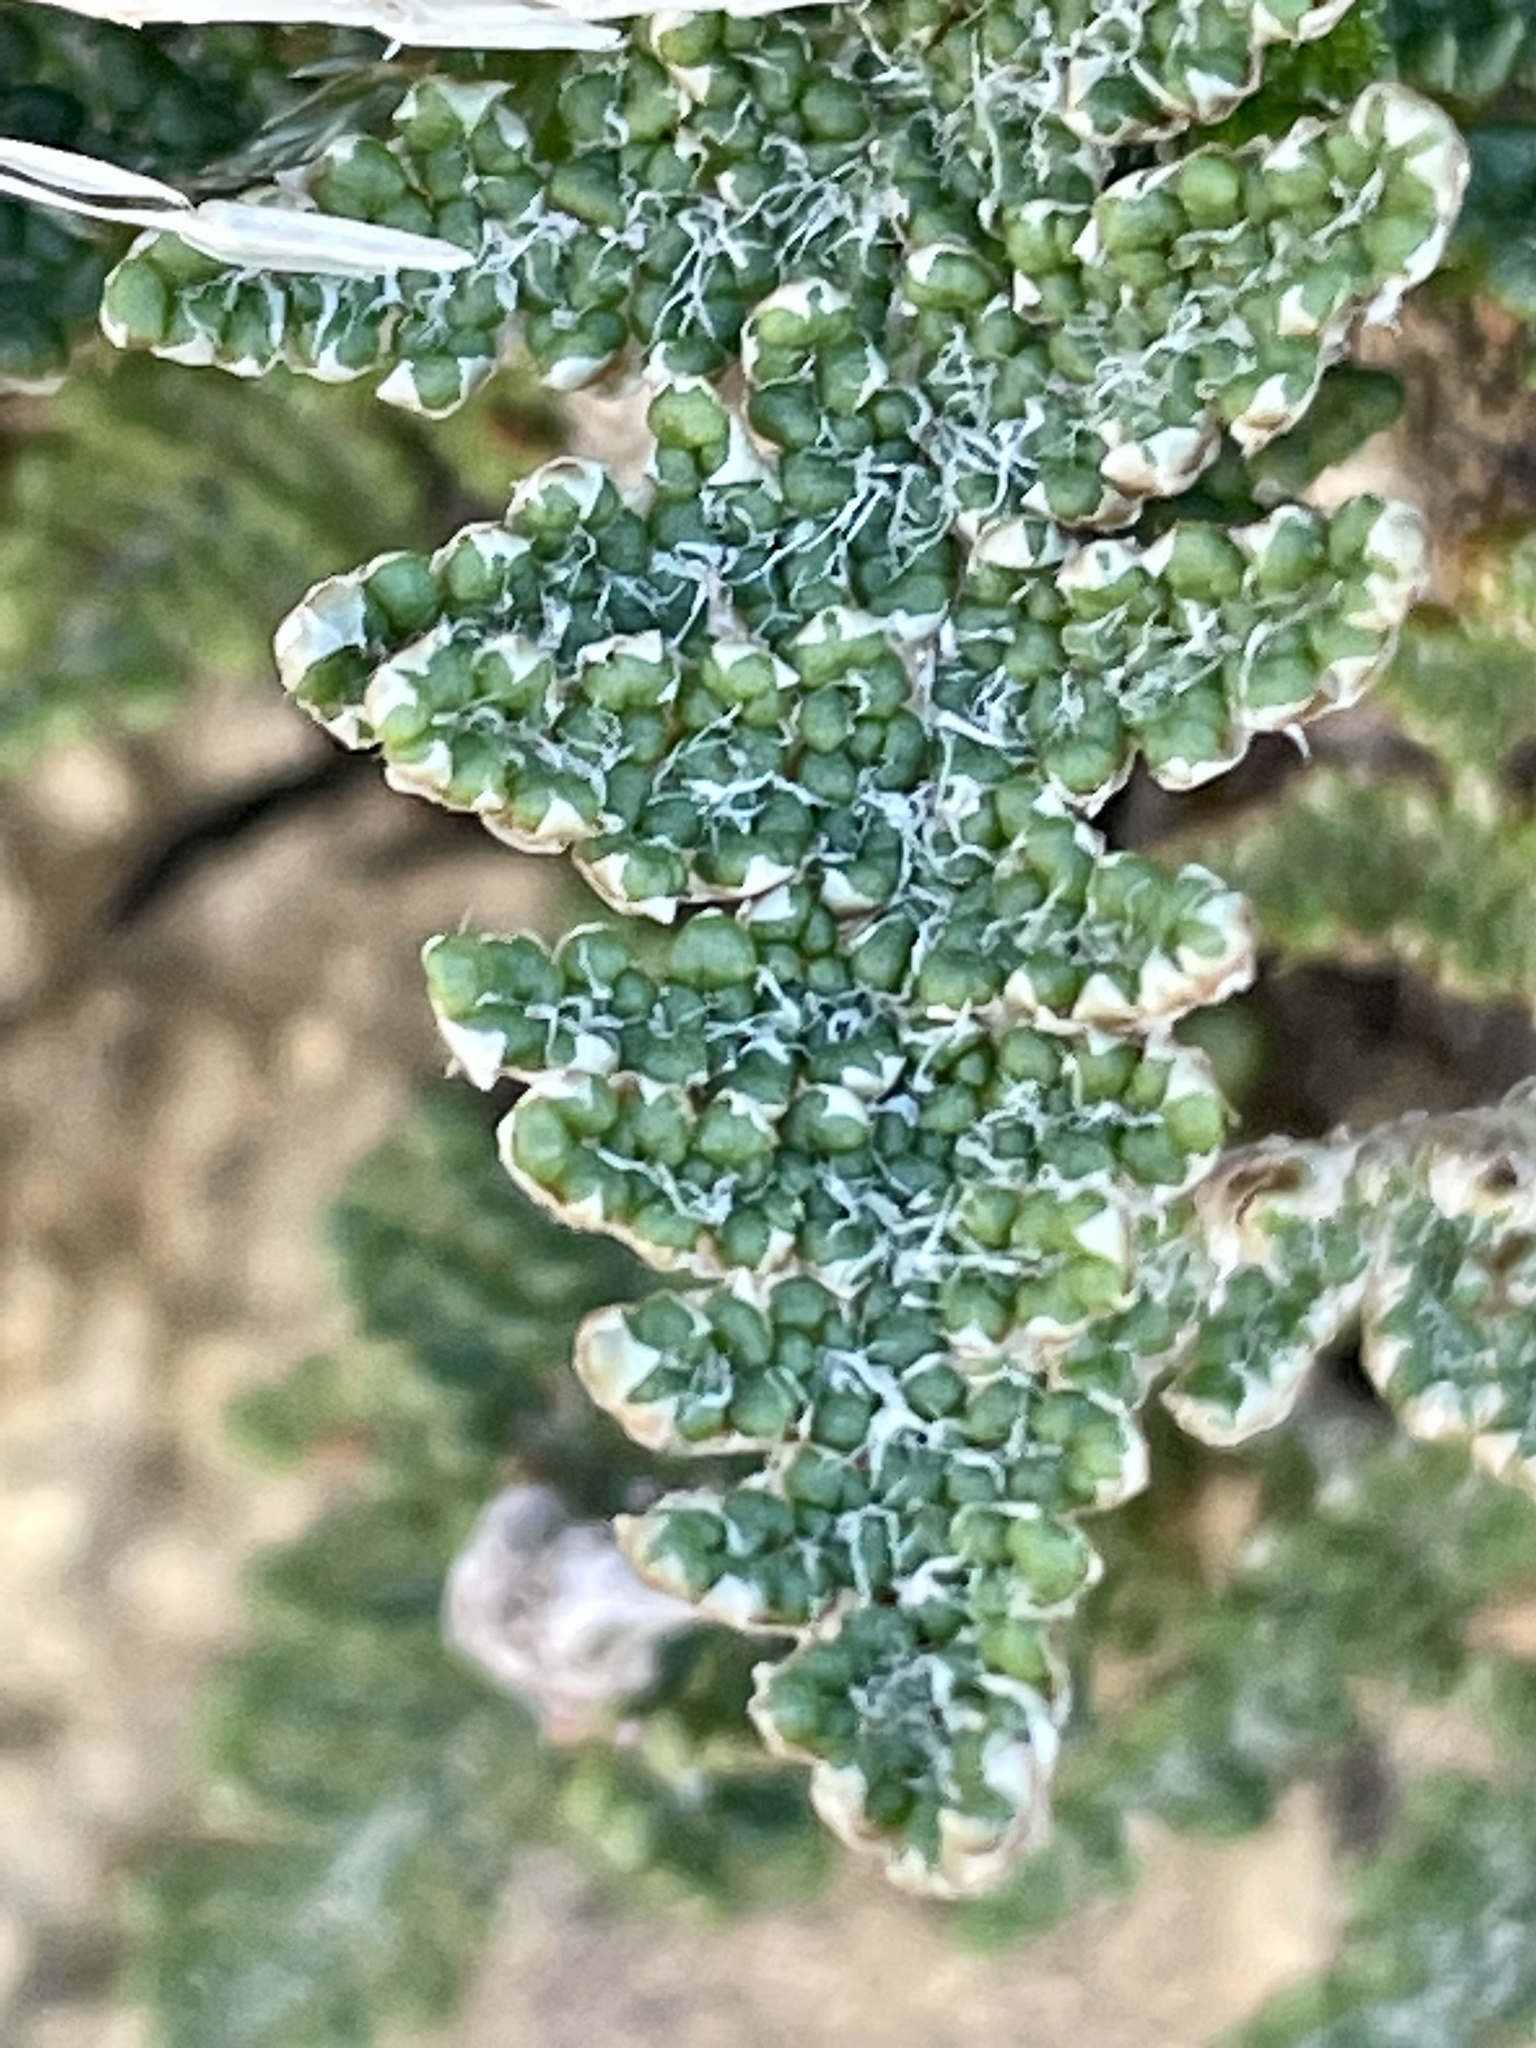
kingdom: Plantae
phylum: Tracheophyta
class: Polypodiopsida
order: Polypodiales
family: Pteridaceae
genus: Myriopteris
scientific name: Myriopteris covillei
